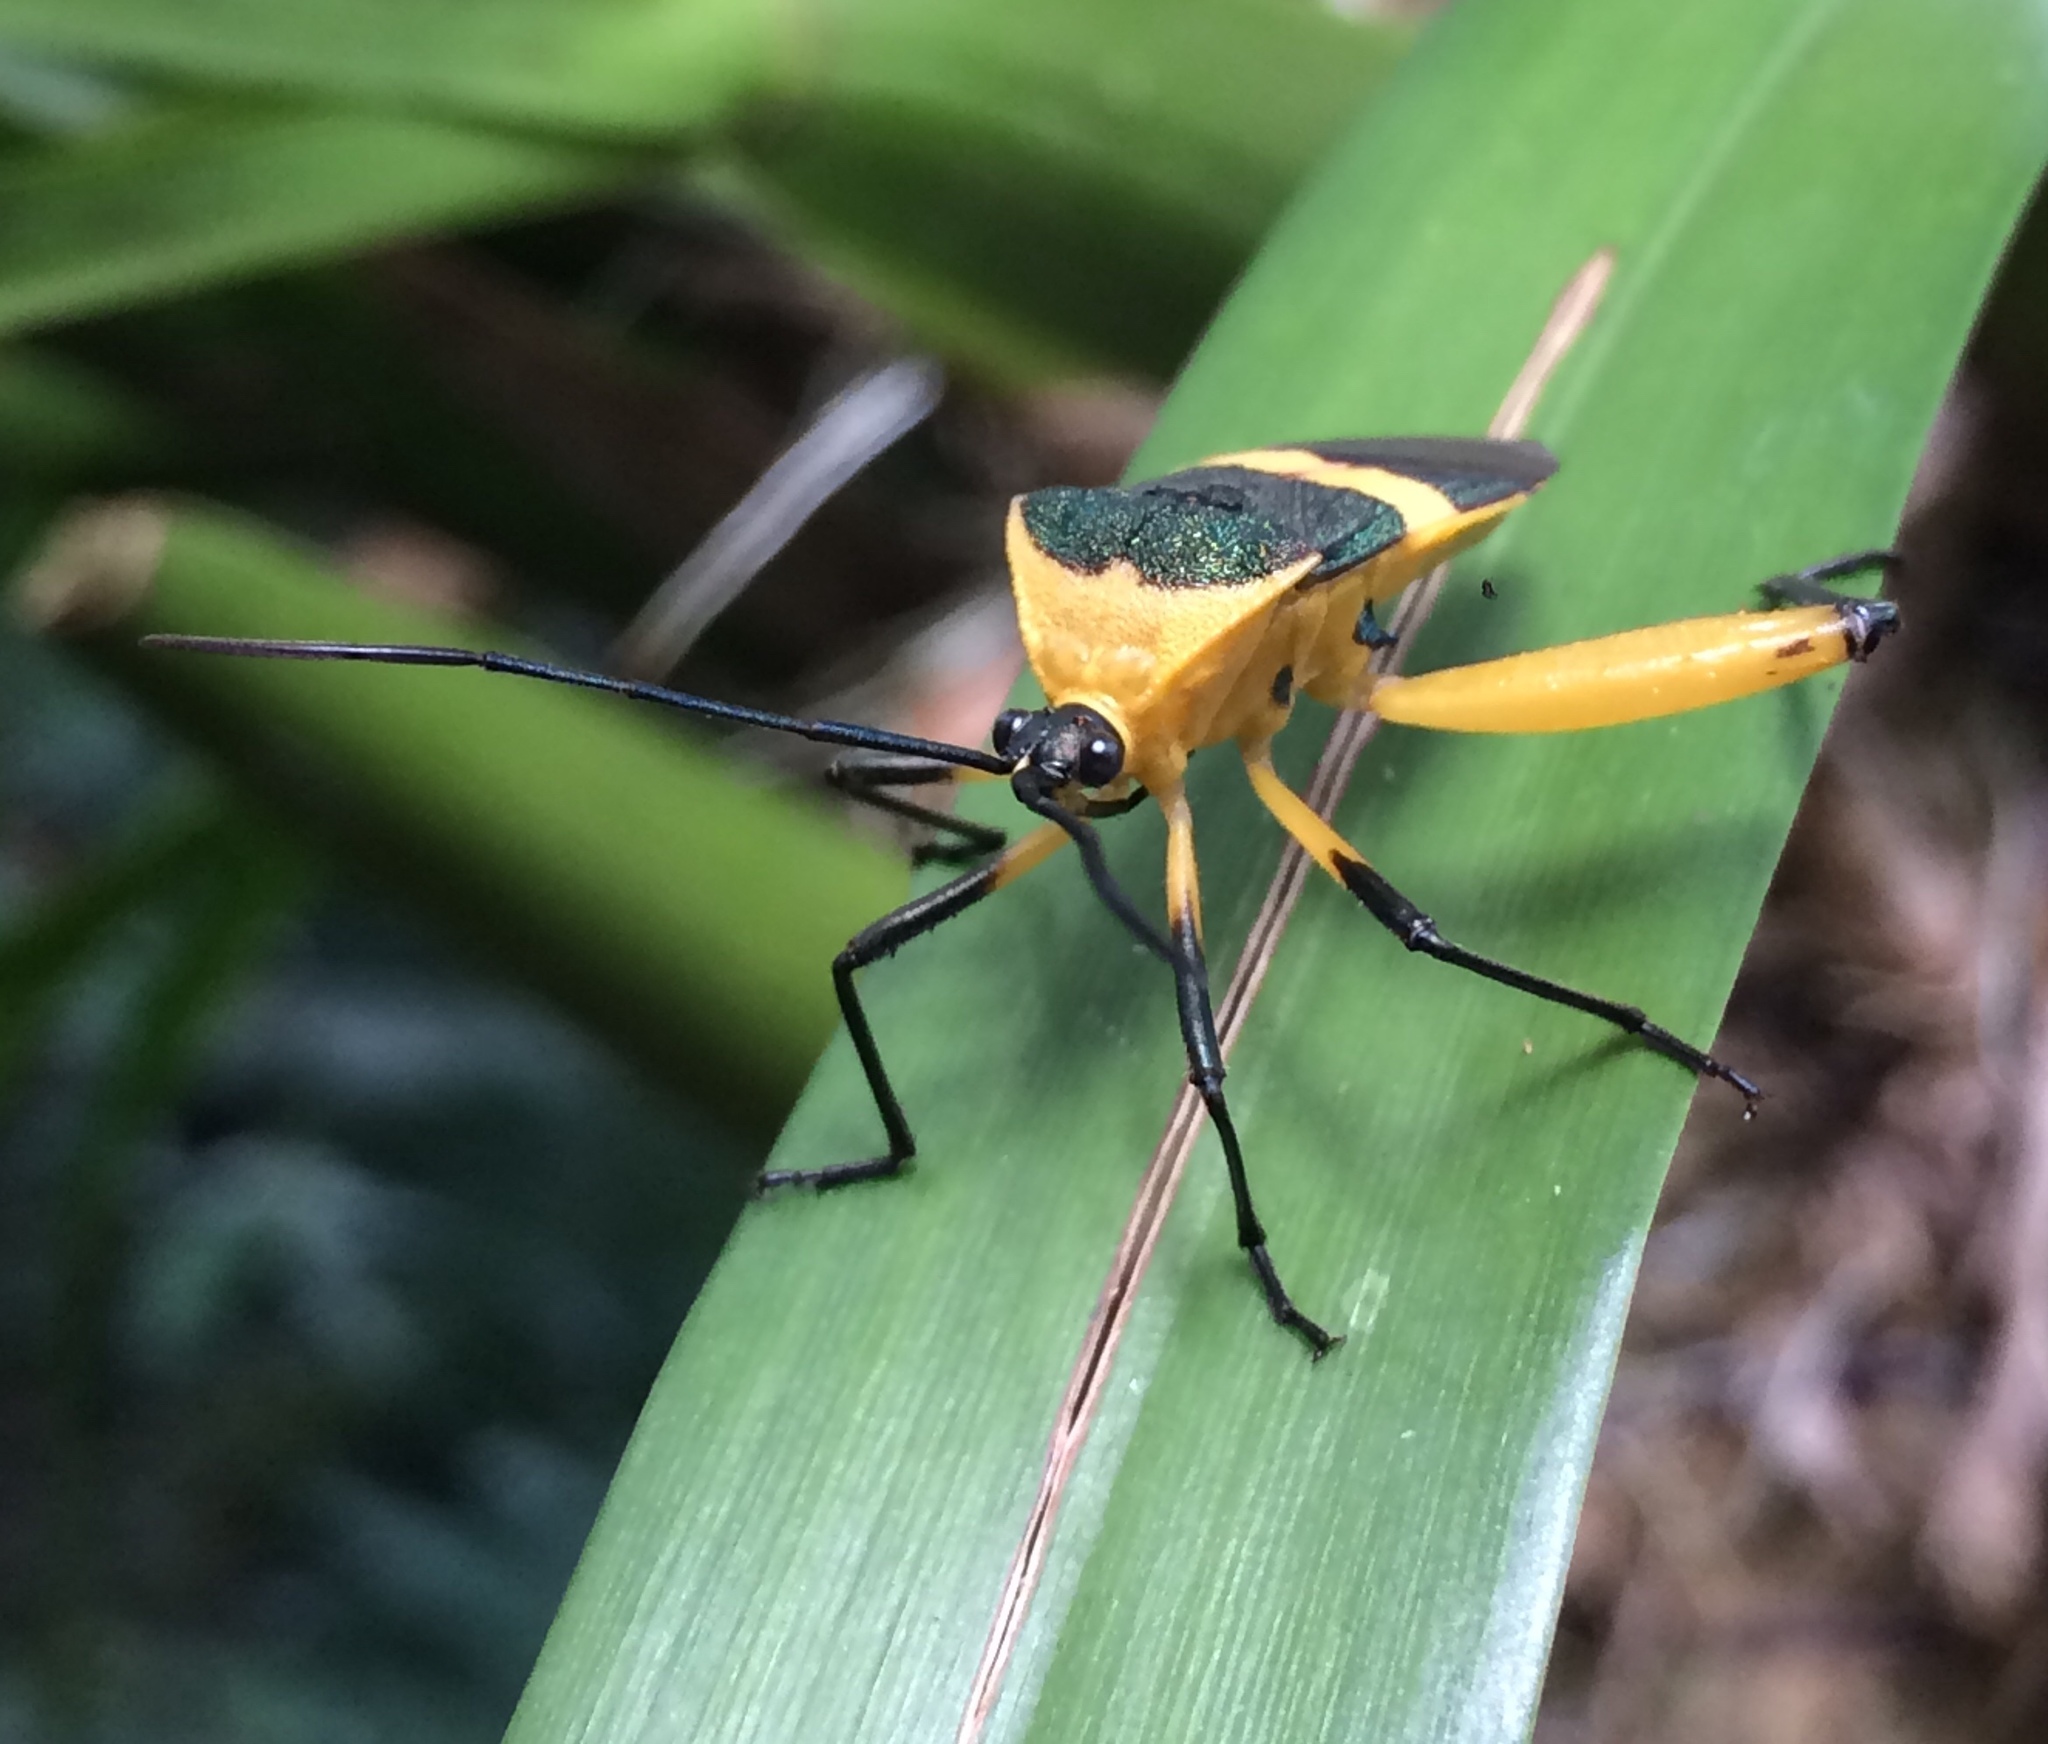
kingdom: Animalia
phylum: Arthropoda
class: Insecta
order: Hemiptera
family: Coreidae
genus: Laminiceps
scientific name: Laminiceps fasciatus
